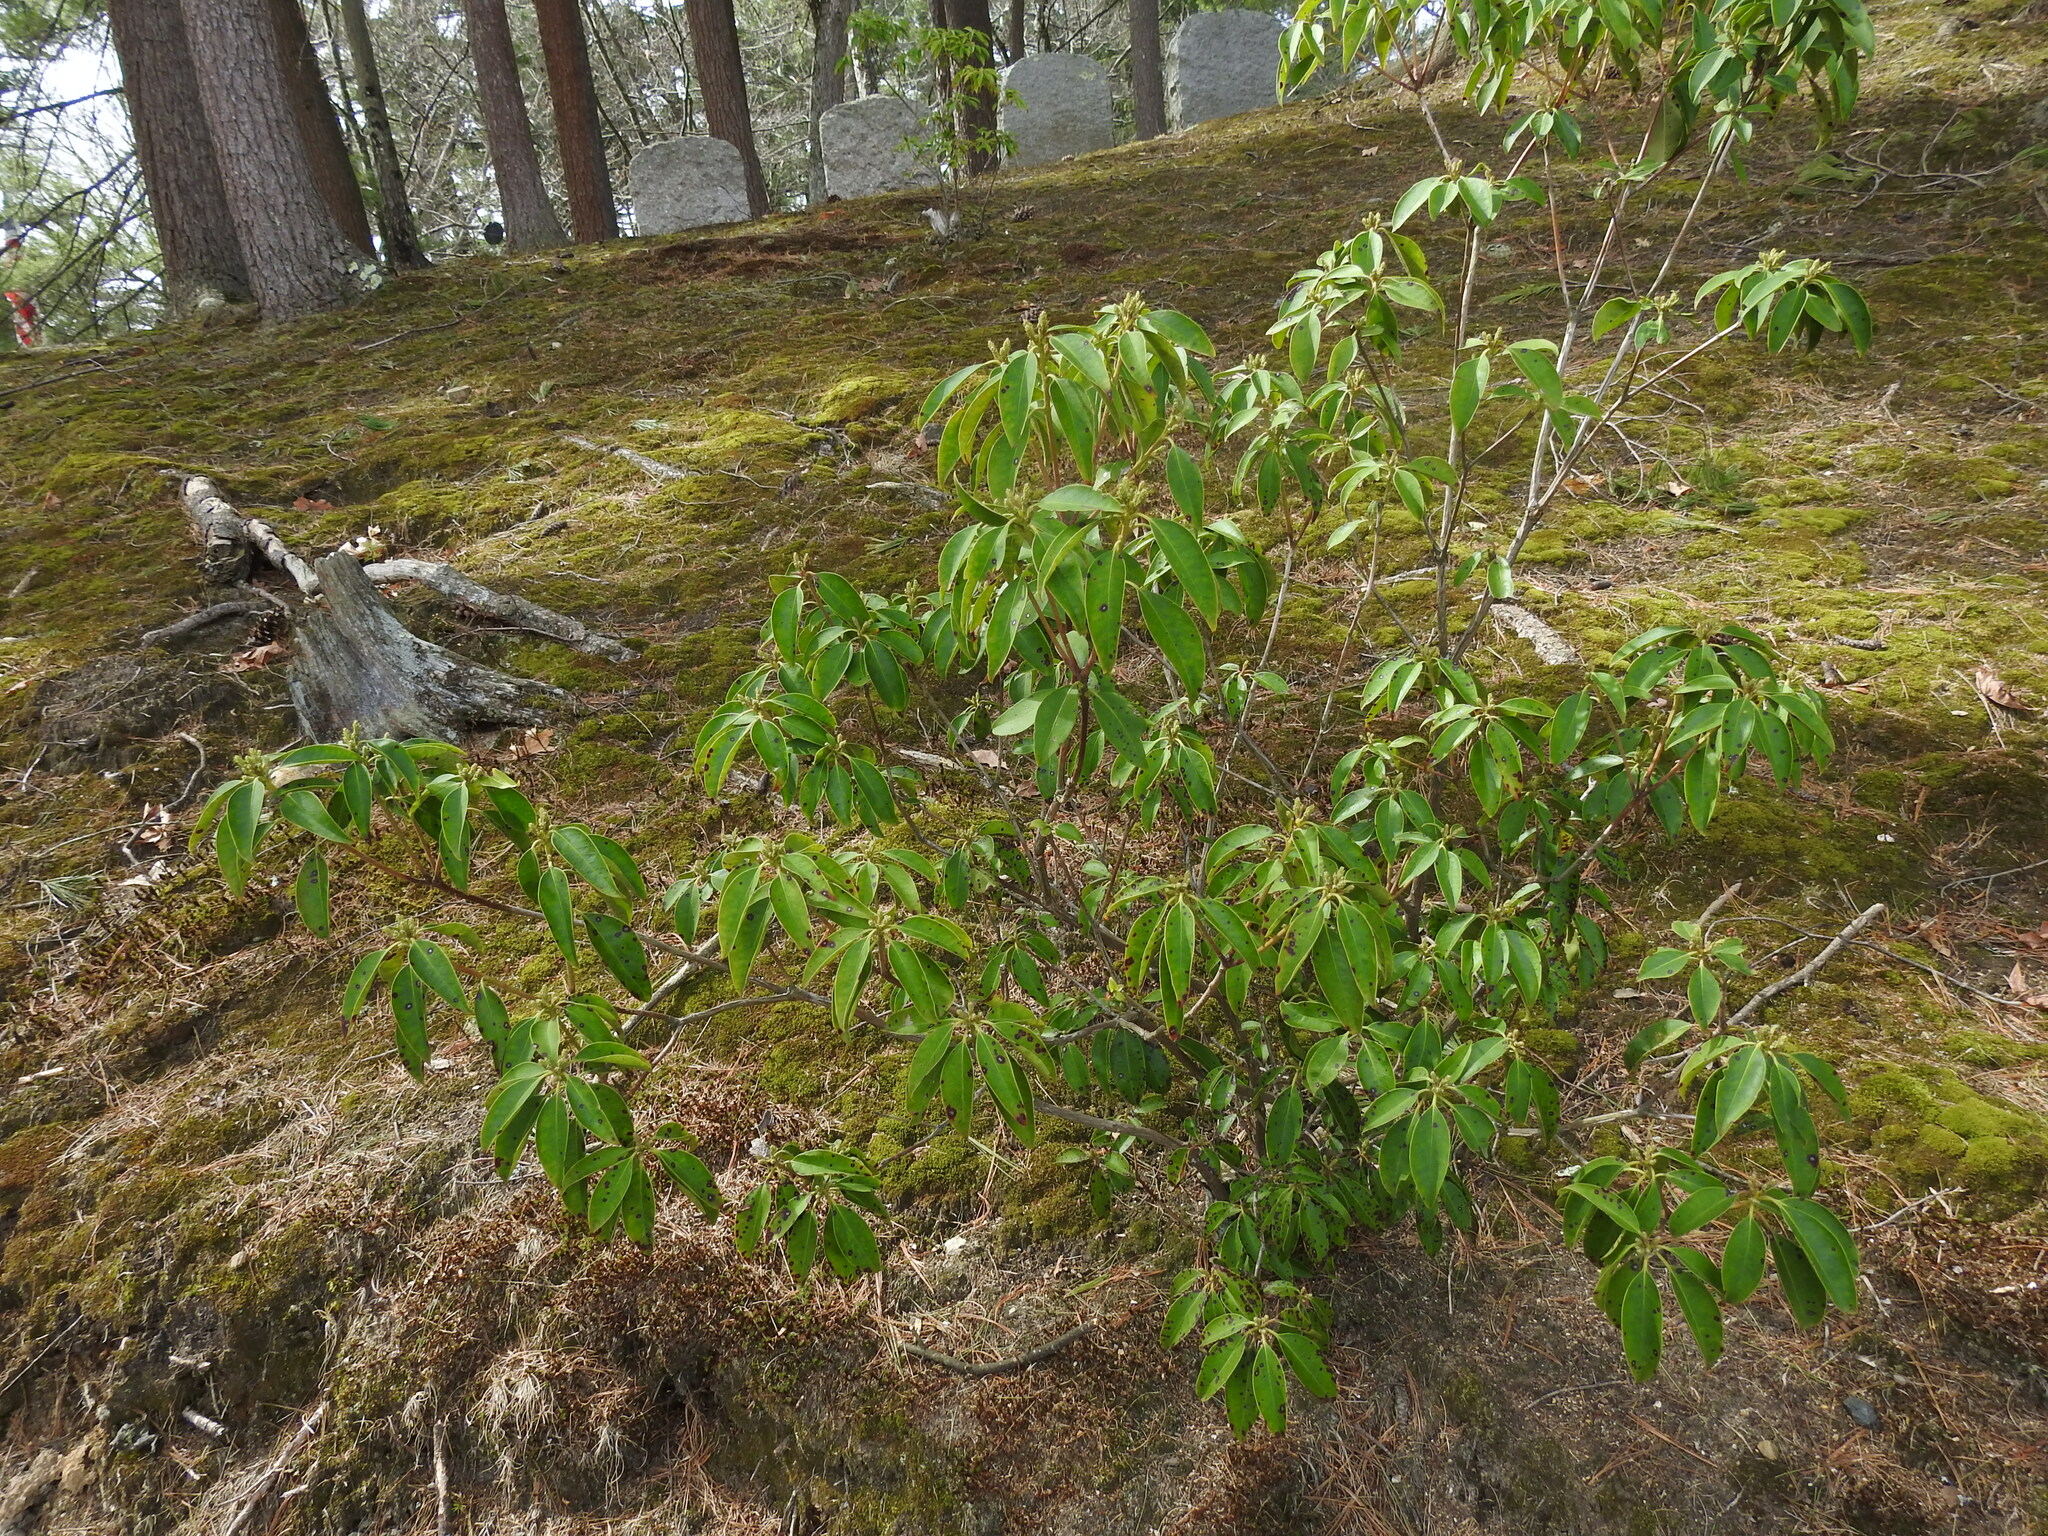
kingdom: Plantae
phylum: Tracheophyta
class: Magnoliopsida
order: Ericales
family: Ericaceae
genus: Kalmia
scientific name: Kalmia latifolia
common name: Mountain-laurel
